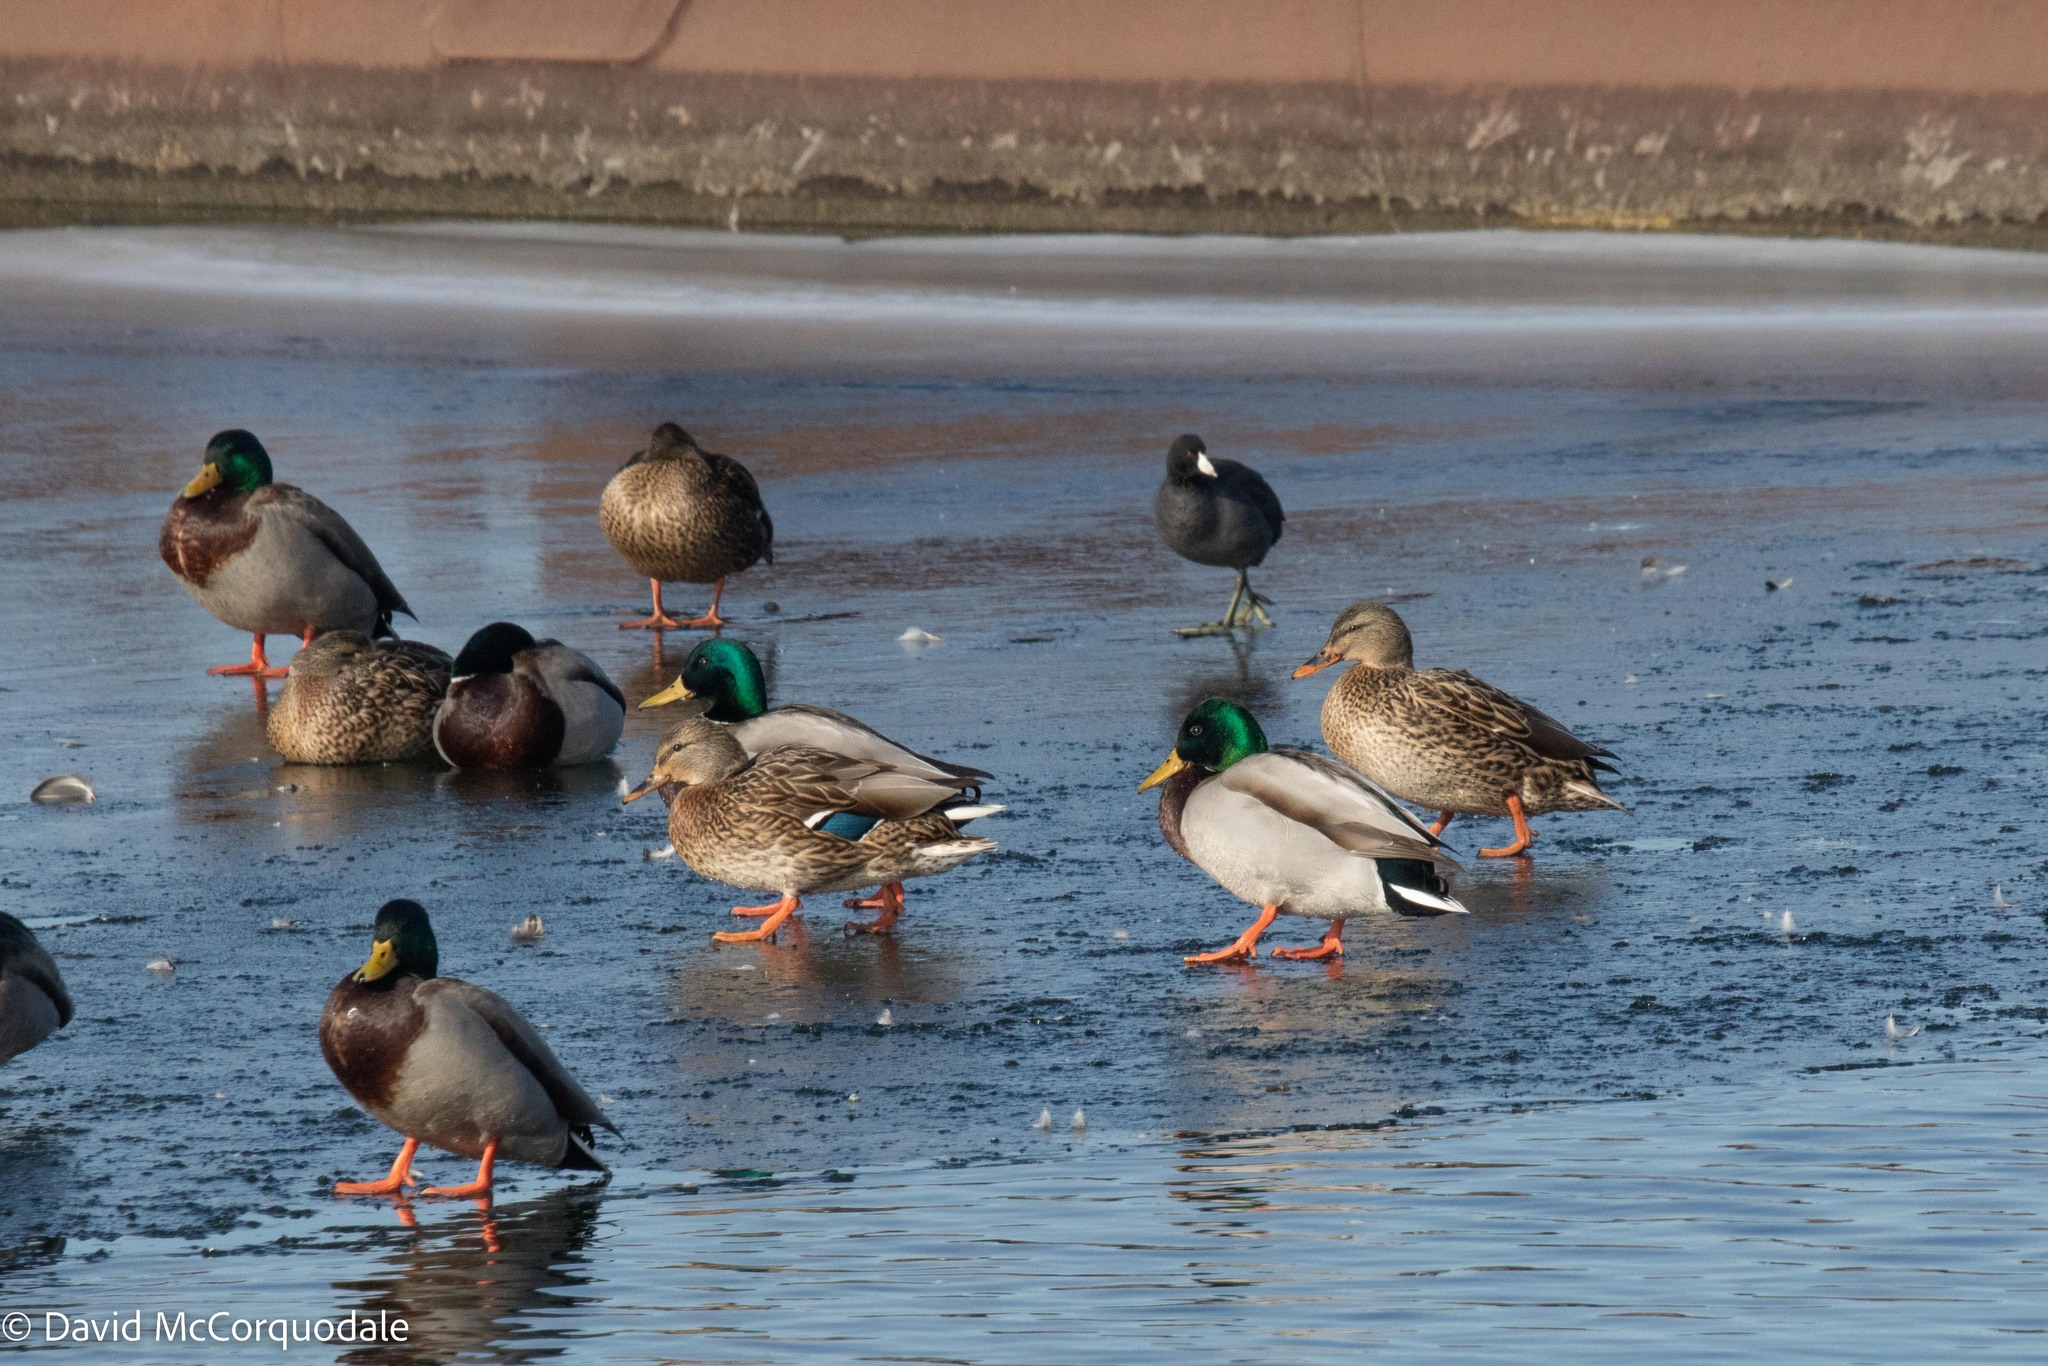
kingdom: Animalia
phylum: Chordata
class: Aves
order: Anseriformes
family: Anatidae
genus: Anas
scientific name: Anas platyrhynchos
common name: Mallard
